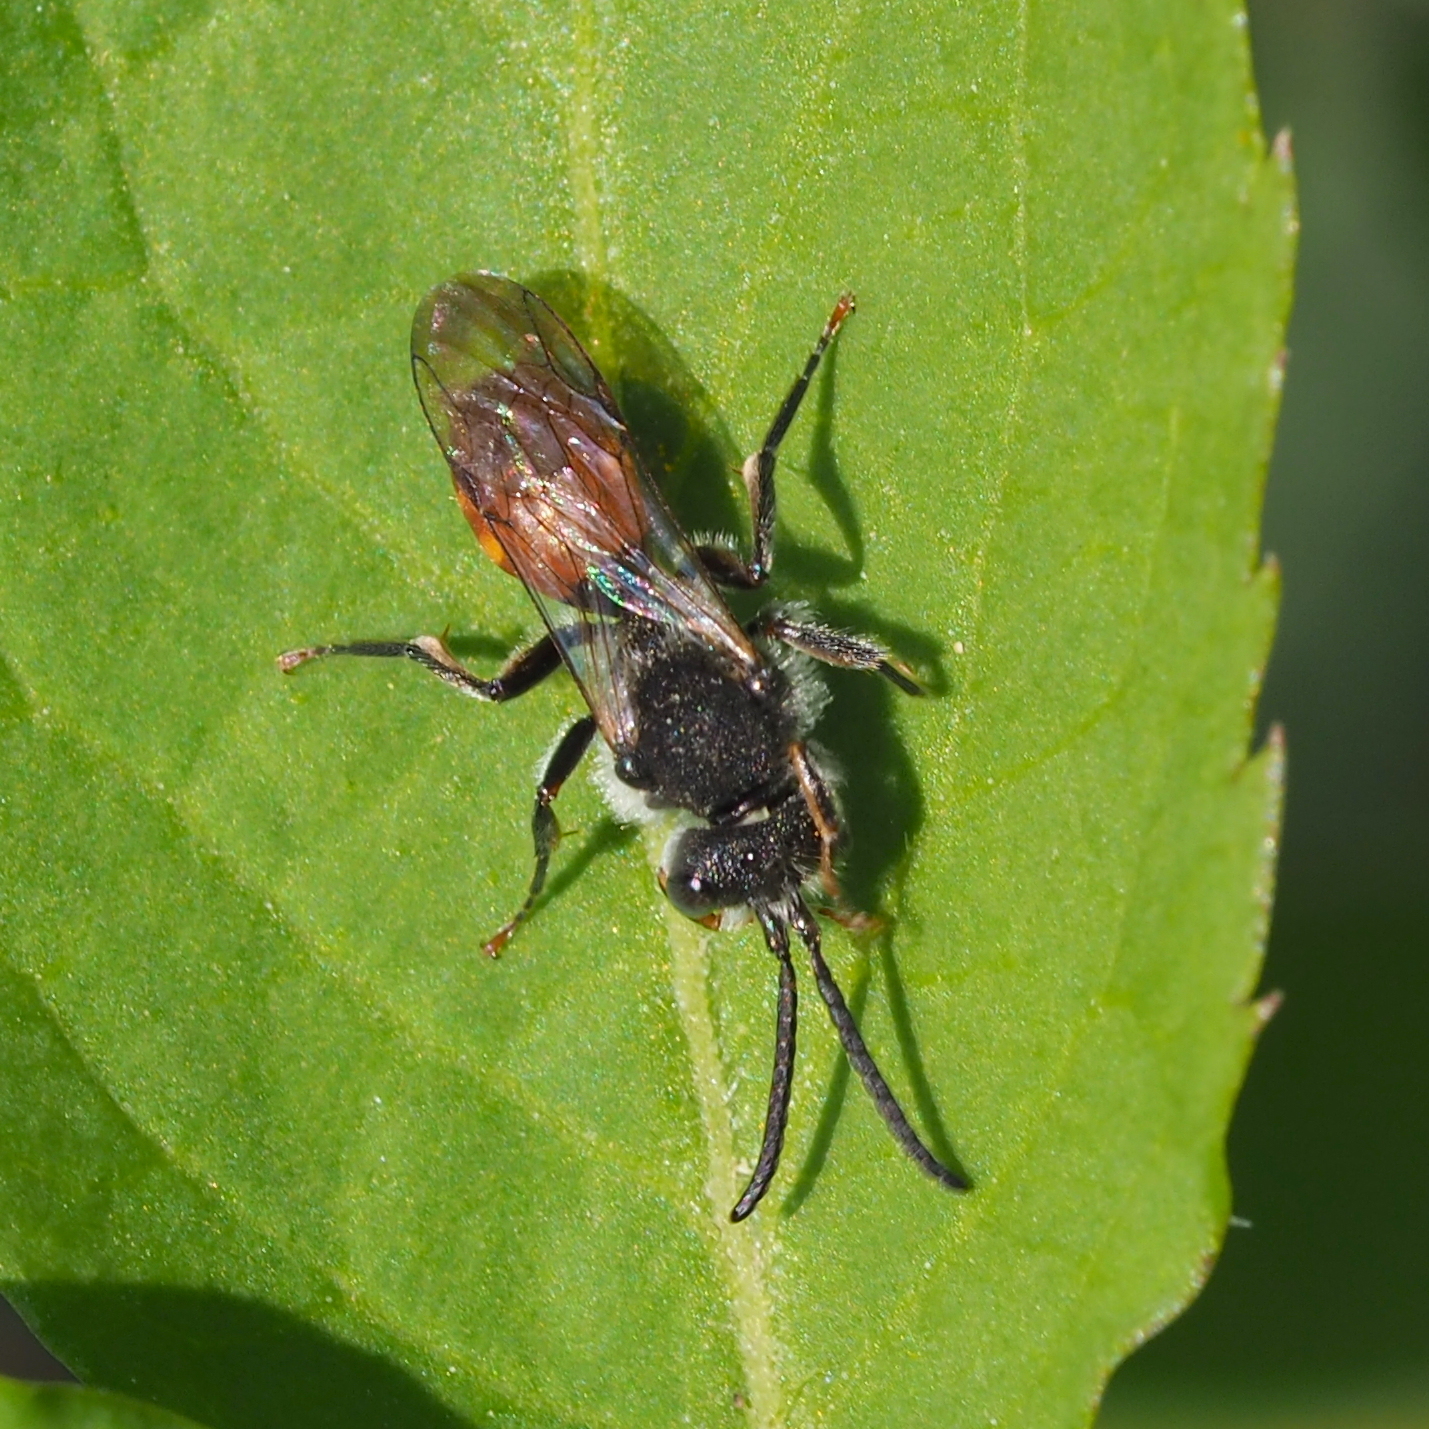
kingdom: Animalia
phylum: Arthropoda
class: Insecta
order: Hymenoptera
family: Apidae
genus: Nomada
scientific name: Nomada fabriciana
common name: Fabricius' nomad bee
